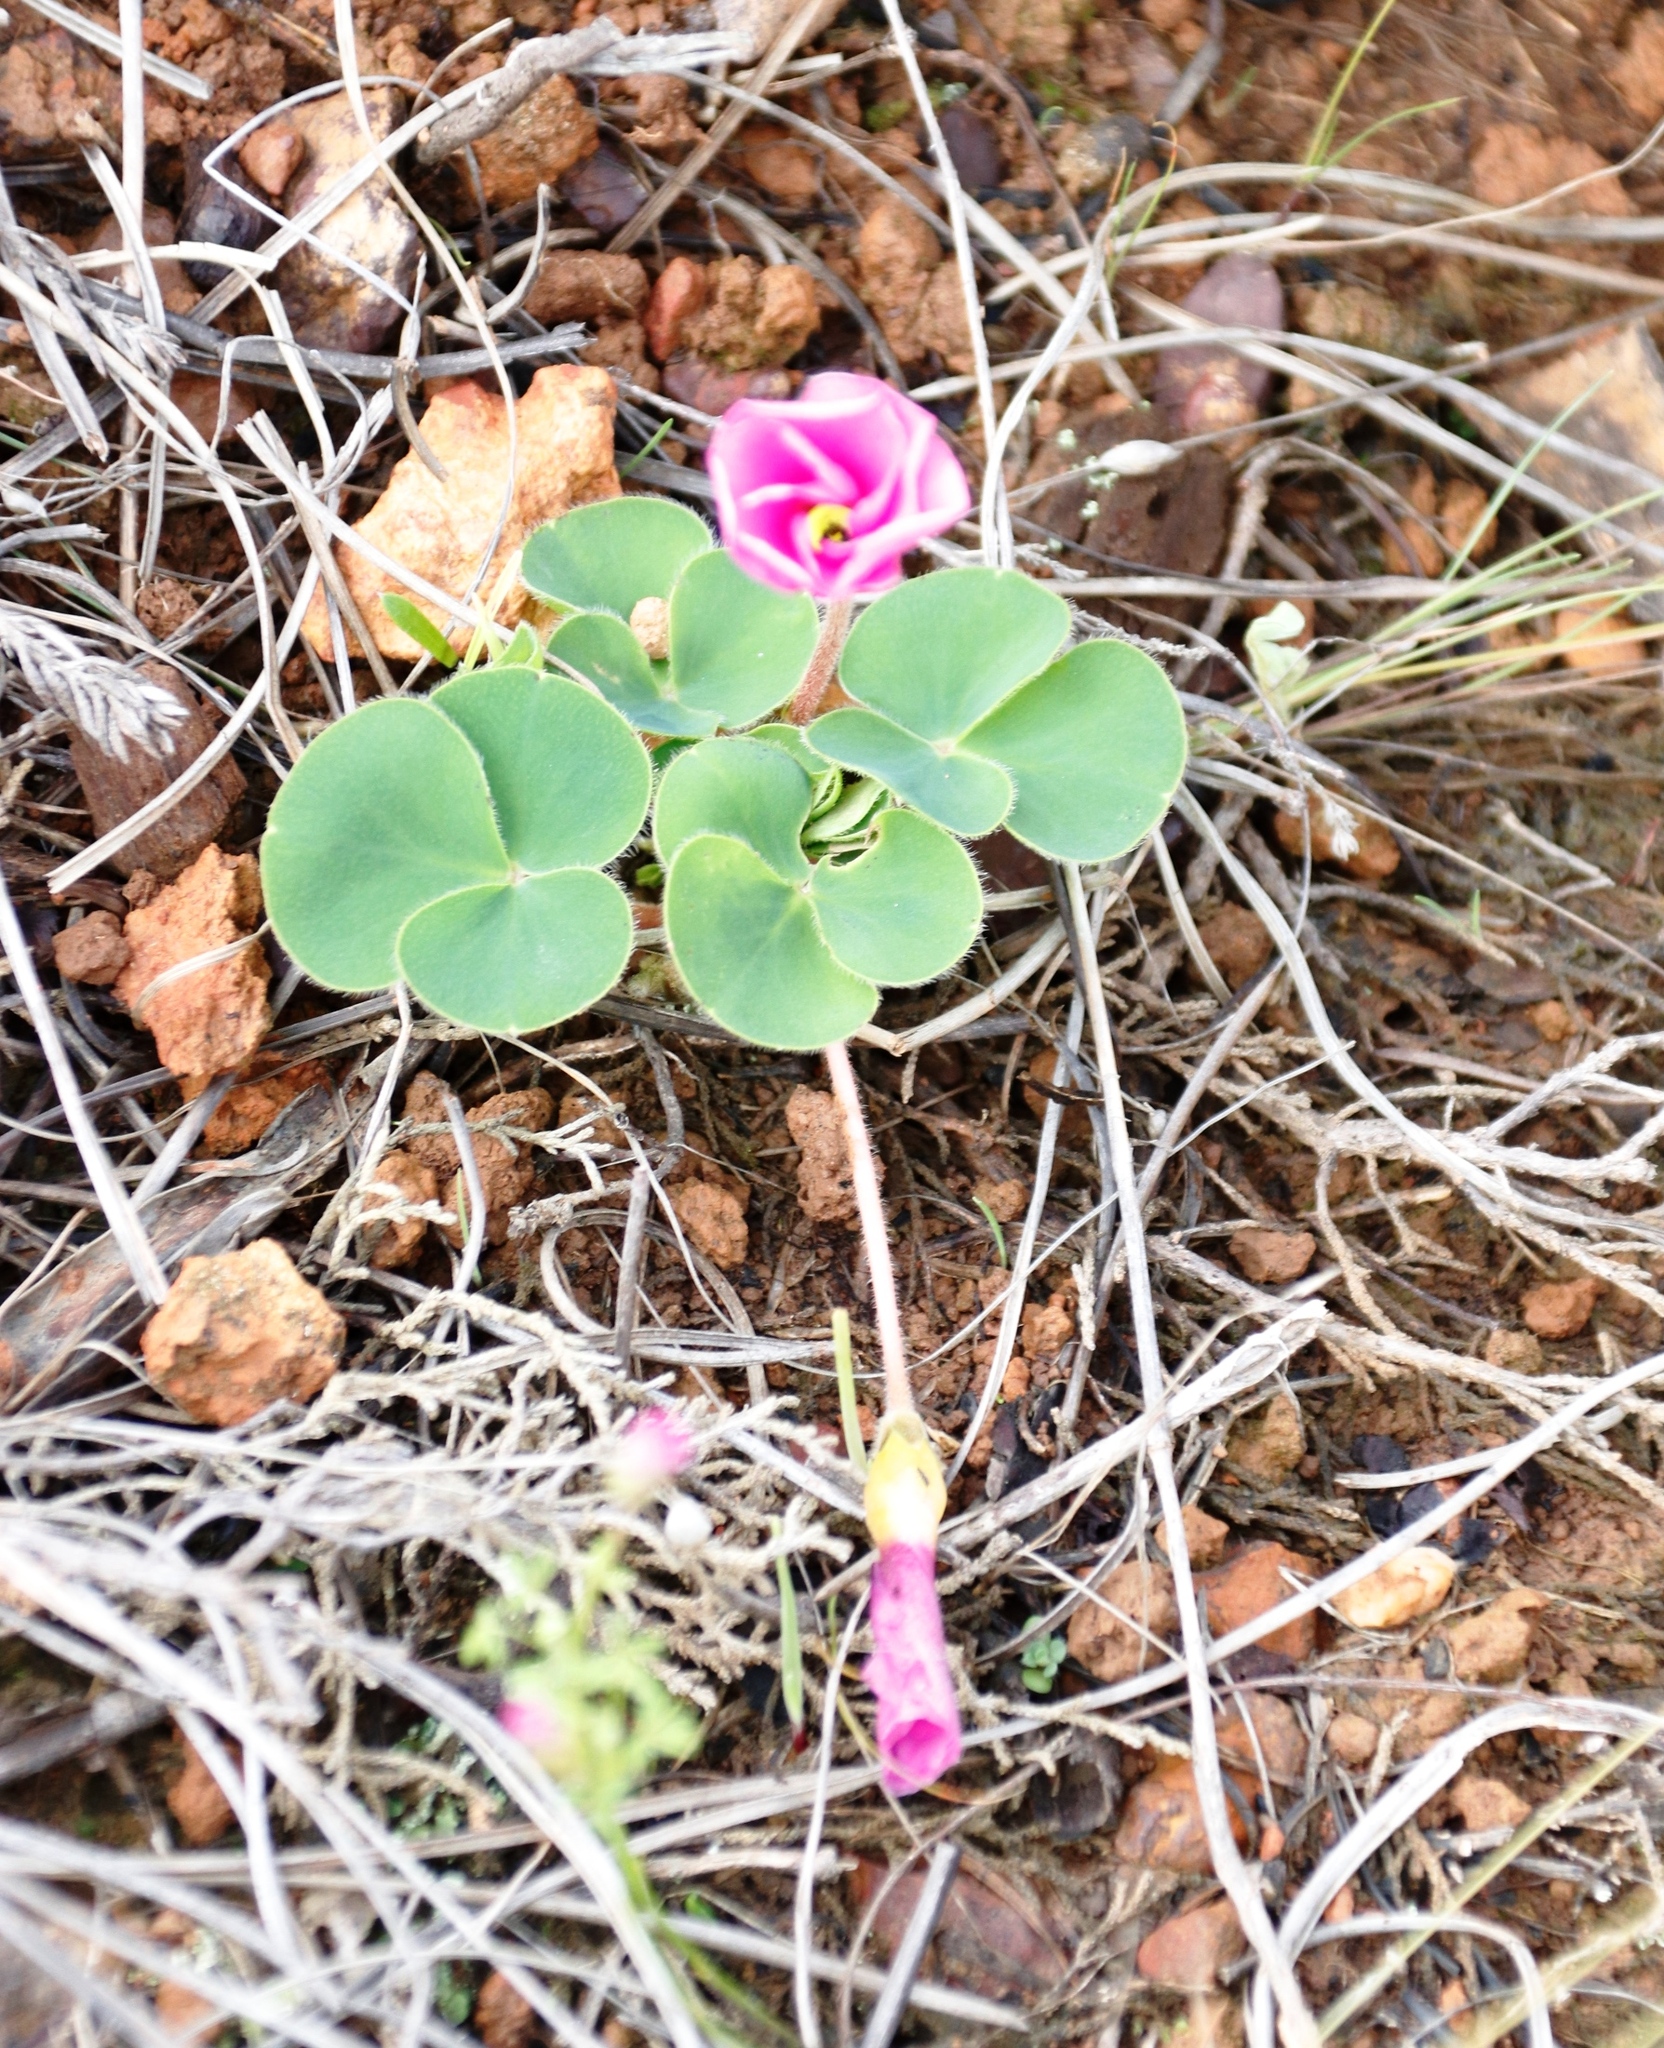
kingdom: Plantae
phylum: Tracheophyta
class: Magnoliopsida
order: Oxalidales
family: Oxalidaceae
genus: Oxalis
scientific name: Oxalis purpurea
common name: Purple woodsorrel
